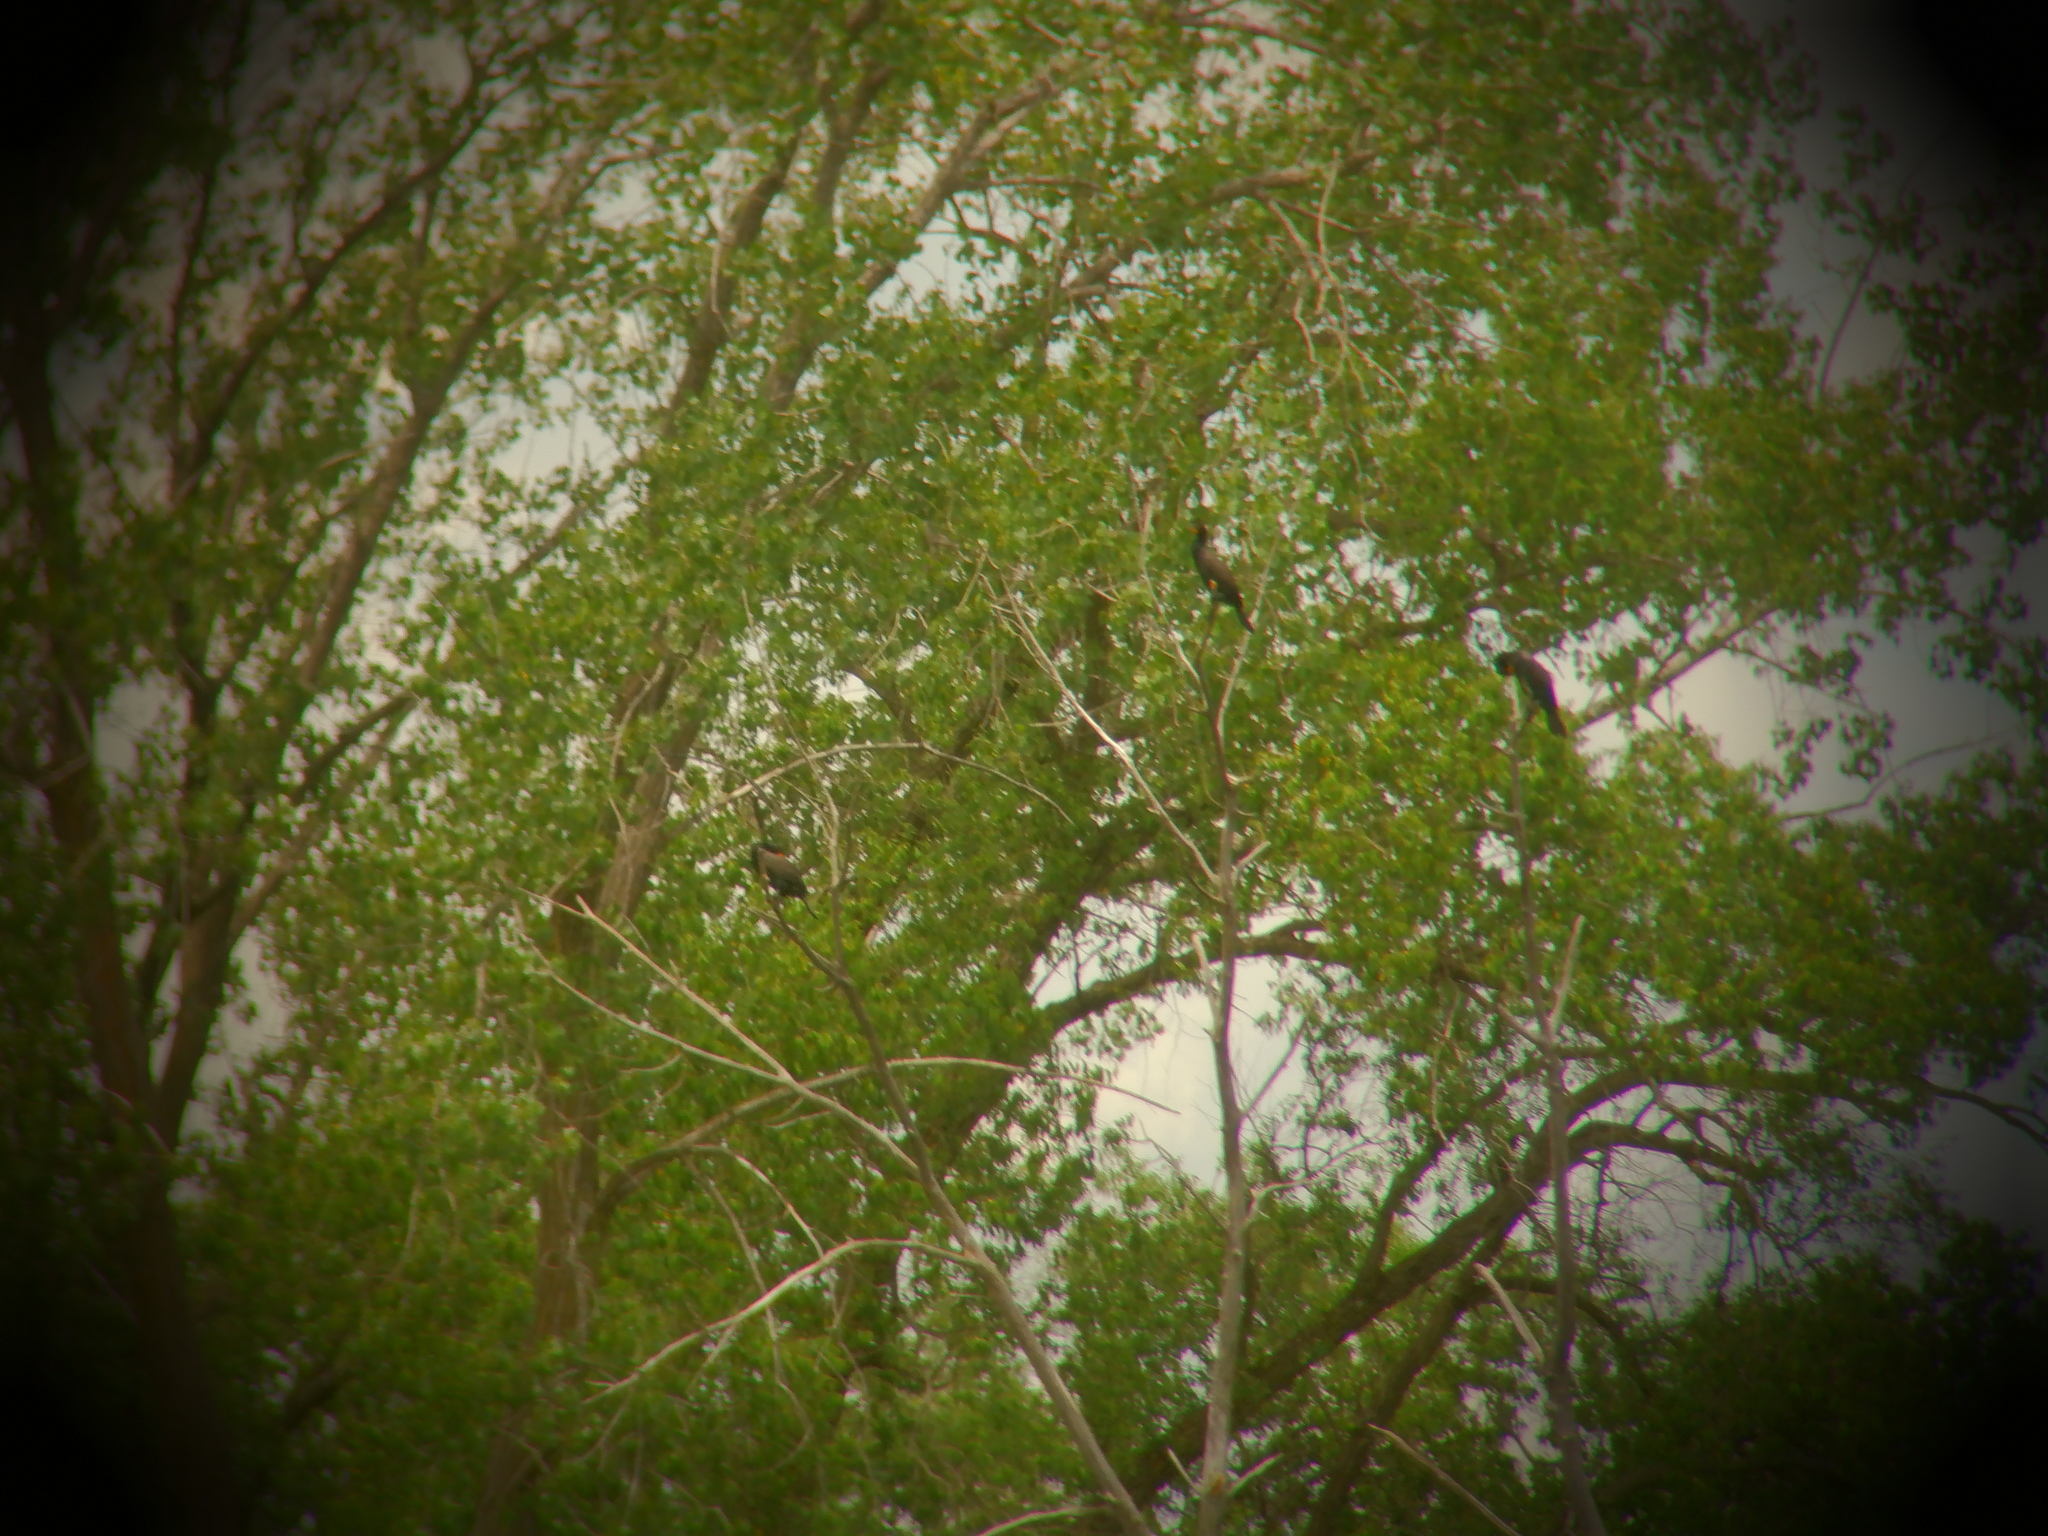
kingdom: Animalia
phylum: Chordata
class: Aves
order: Suliformes
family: Phalacrocoracidae
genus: Phalacrocorax
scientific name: Phalacrocorax auritus
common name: Double-crested cormorant
